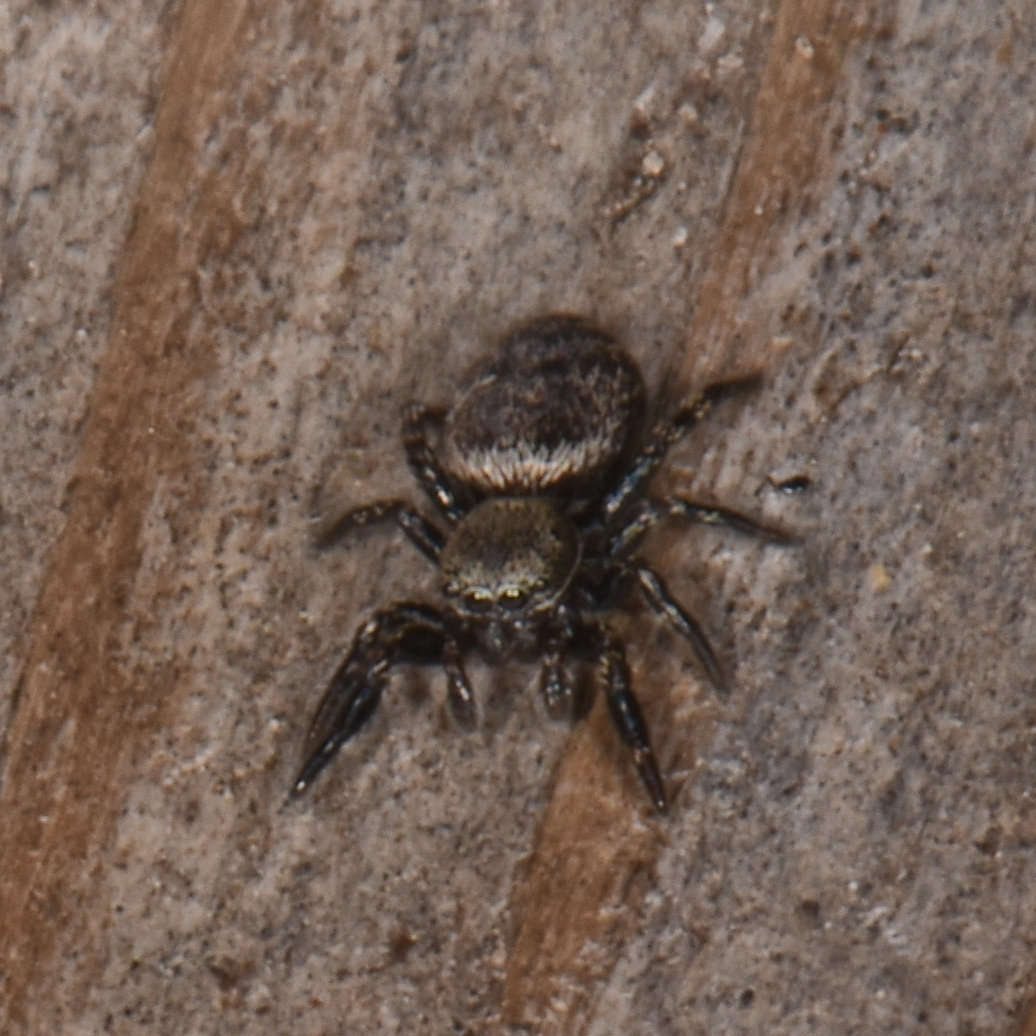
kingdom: Animalia
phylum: Arthropoda
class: Arachnida
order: Araneae
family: Salticidae
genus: Tutelina
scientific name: Tutelina harti
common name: Hart's jumping spider
